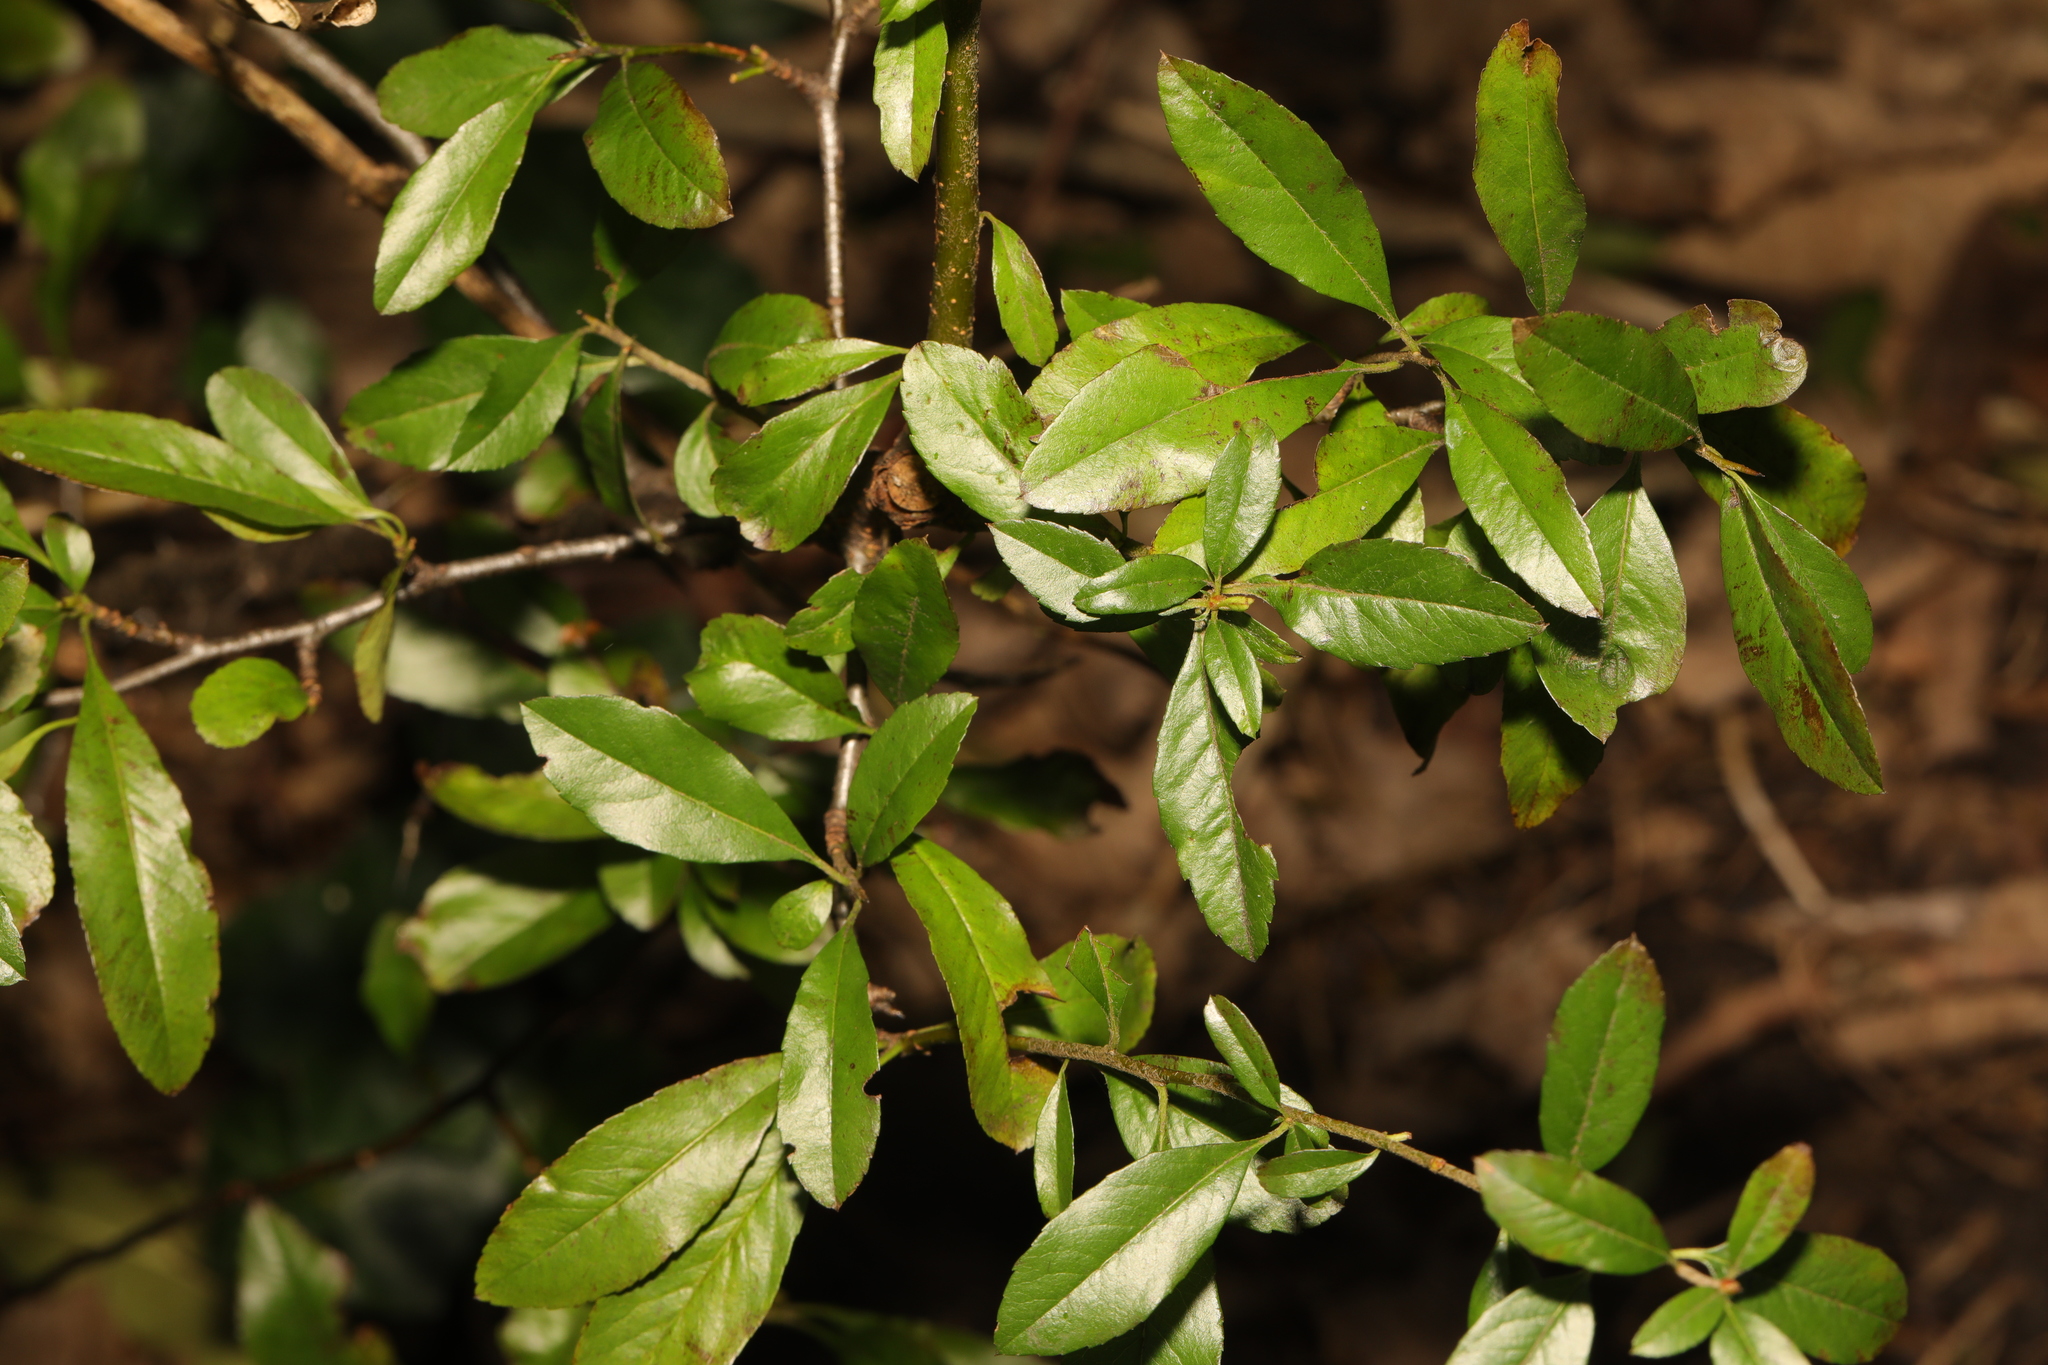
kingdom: Plantae
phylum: Tracheophyta
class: Magnoliopsida
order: Rosales
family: Rosaceae
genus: Pyracantha
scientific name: Pyracantha coccinea
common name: Firethorn
